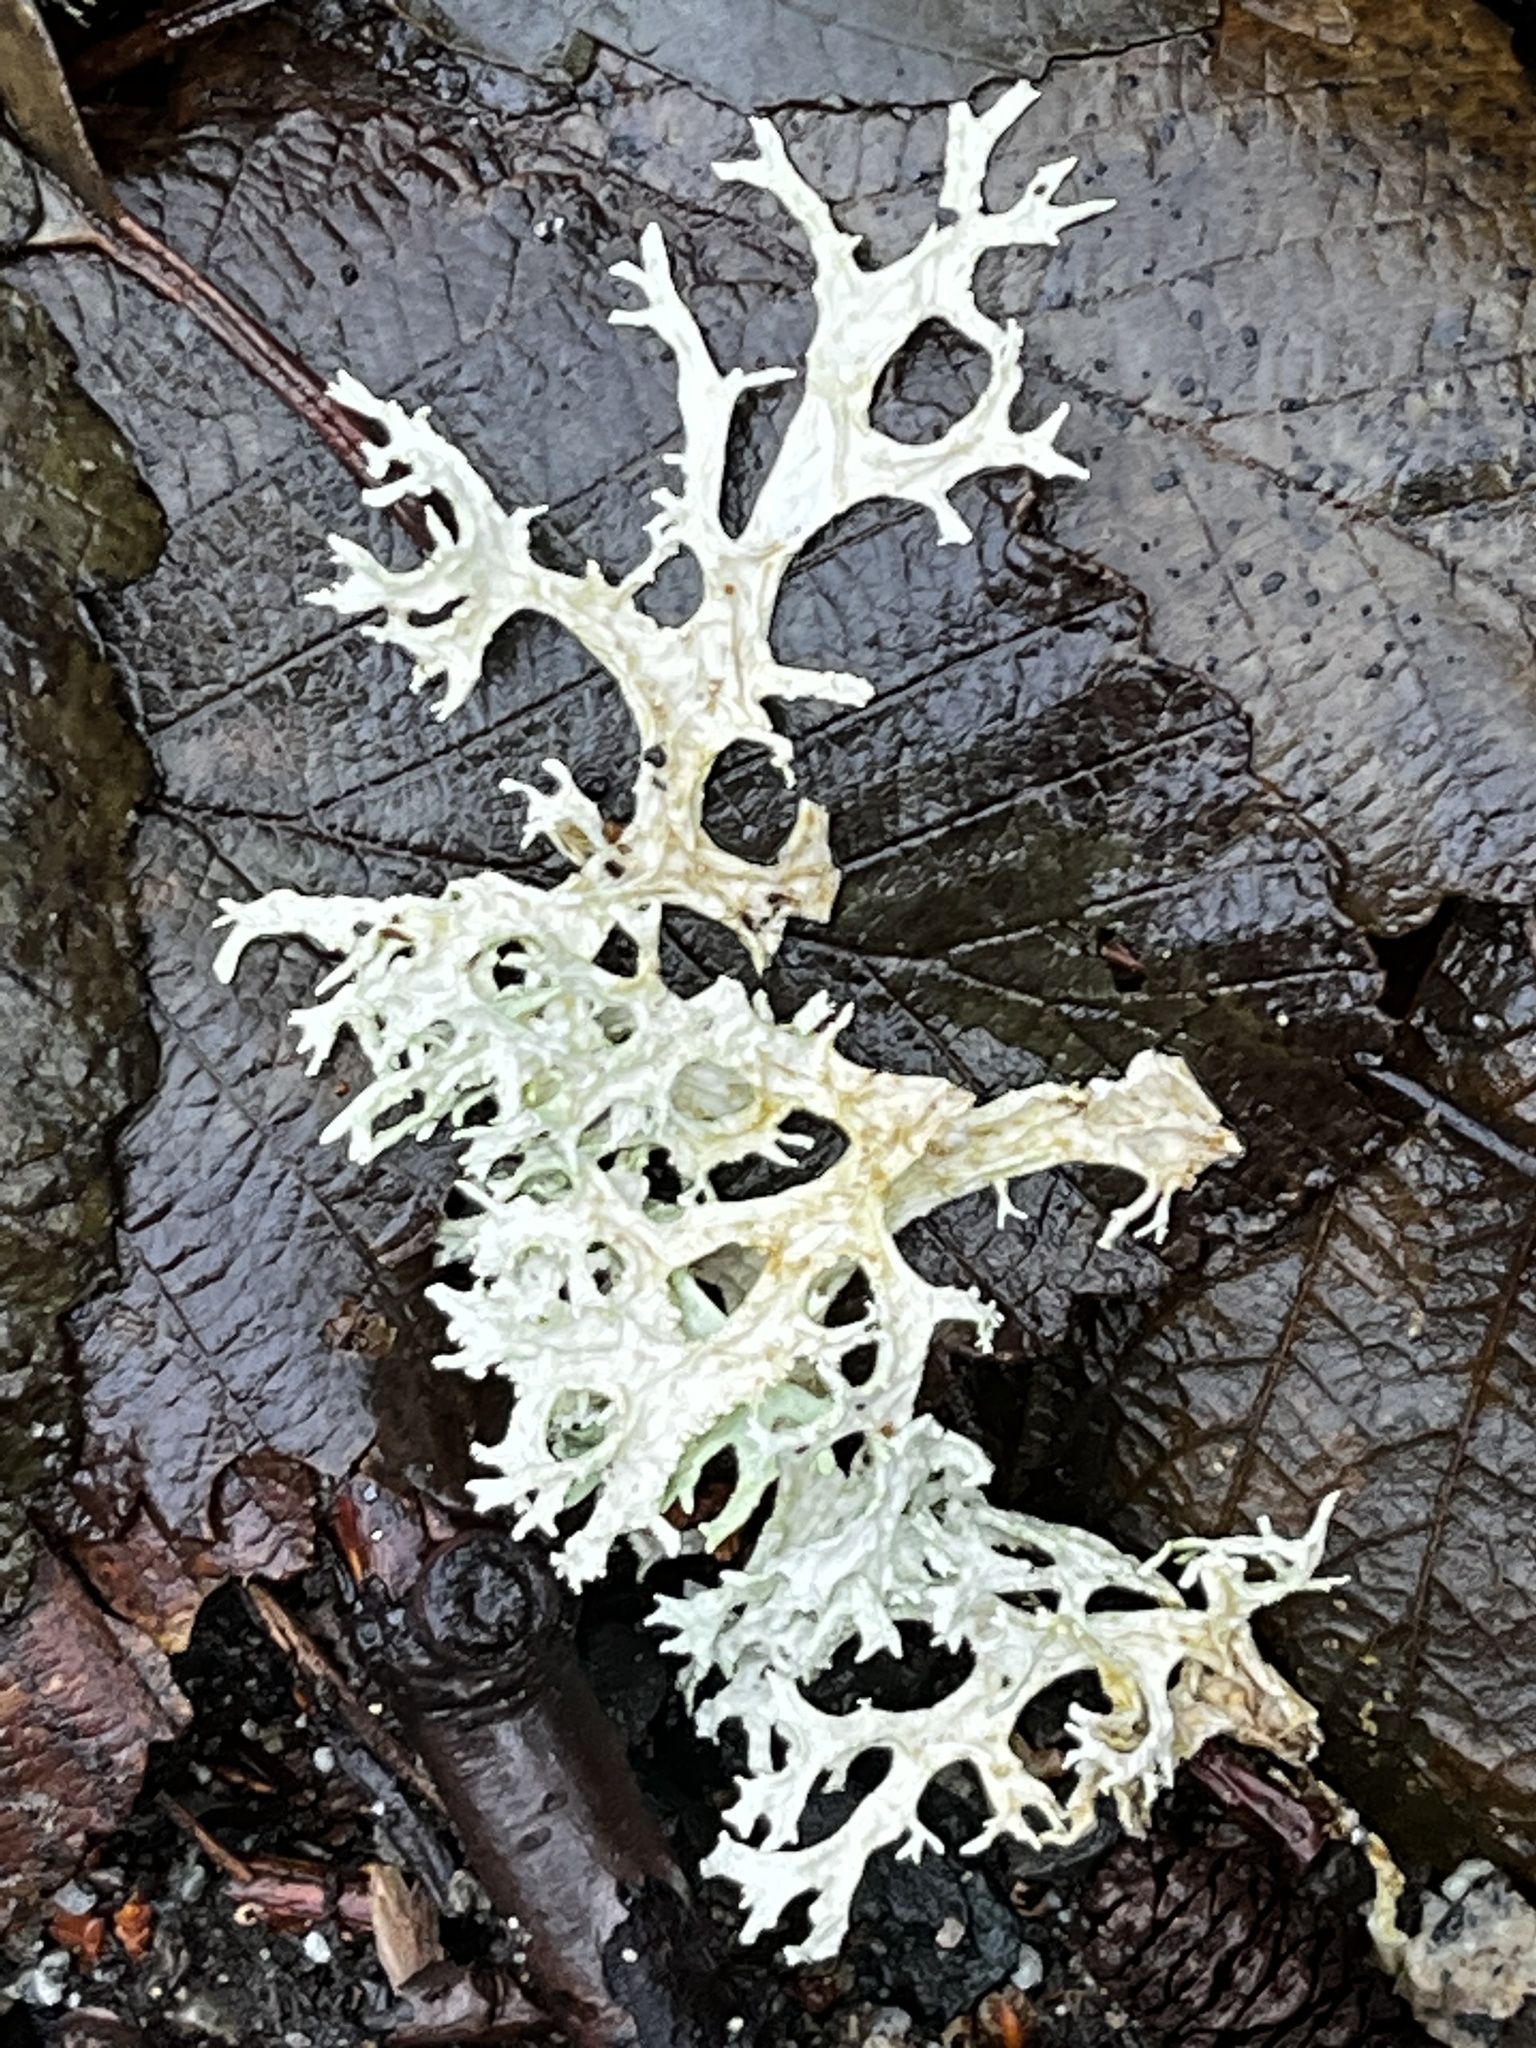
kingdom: Fungi
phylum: Ascomycota
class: Lecanoromycetes
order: Lecanorales
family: Parmeliaceae
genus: Evernia
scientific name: Evernia prunastri
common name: Oak moss
